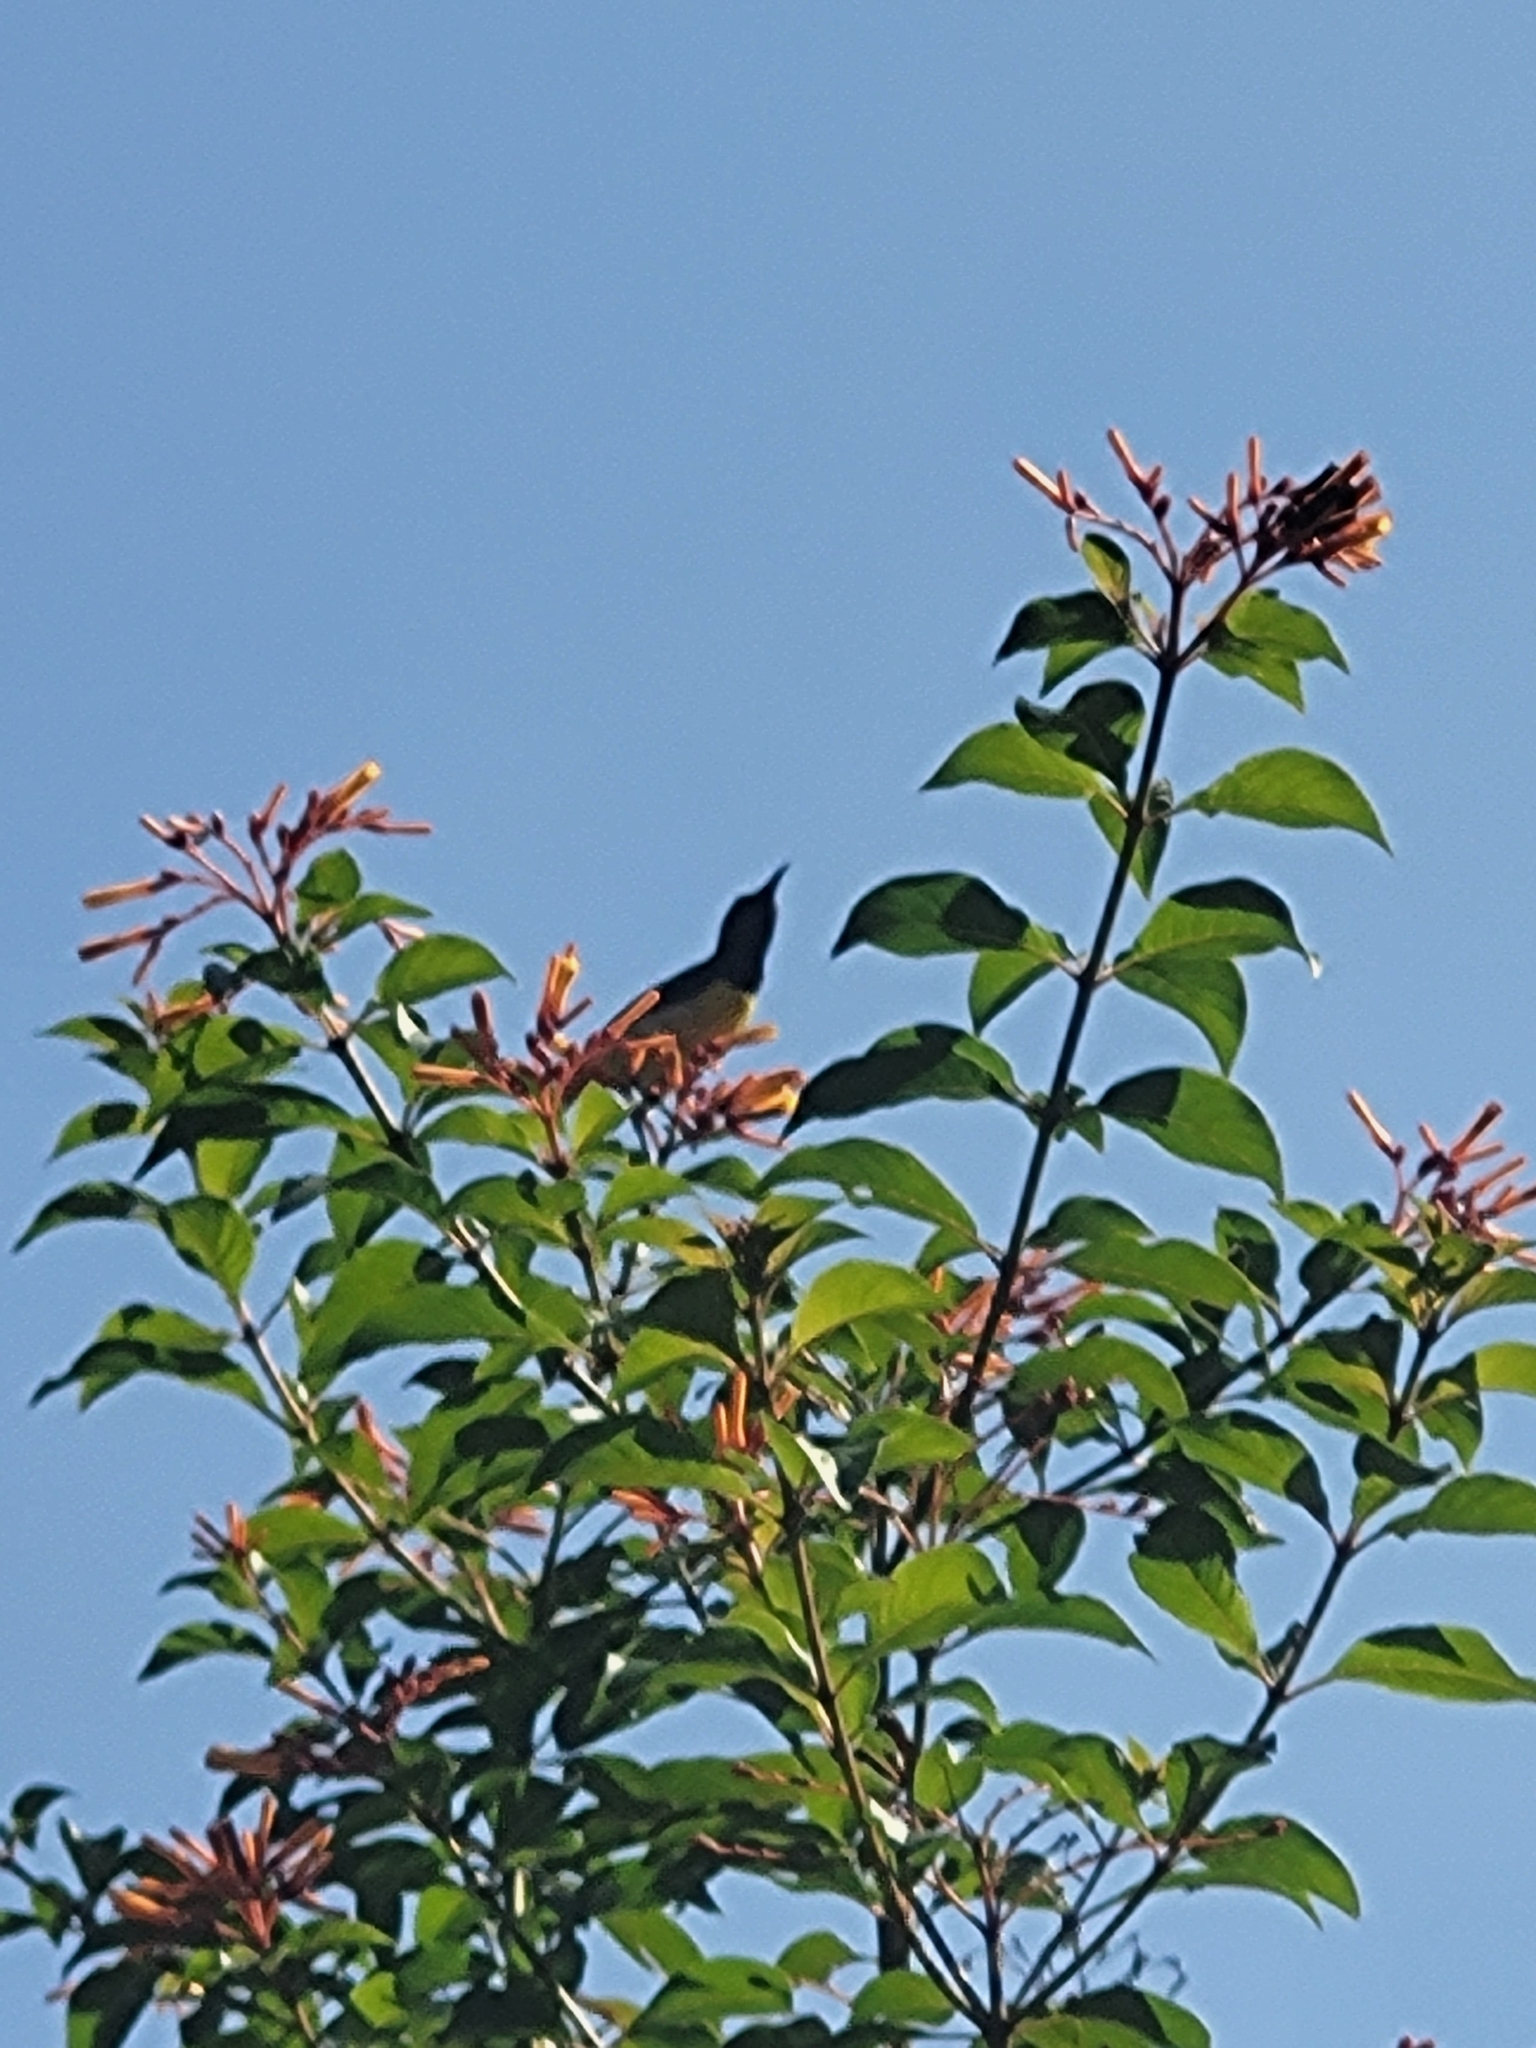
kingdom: Animalia
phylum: Chordata
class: Aves
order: Passeriformes
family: Nectariniidae
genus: Leptocoma
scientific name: Leptocoma zeylonica
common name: Purple-rumped sunbird
